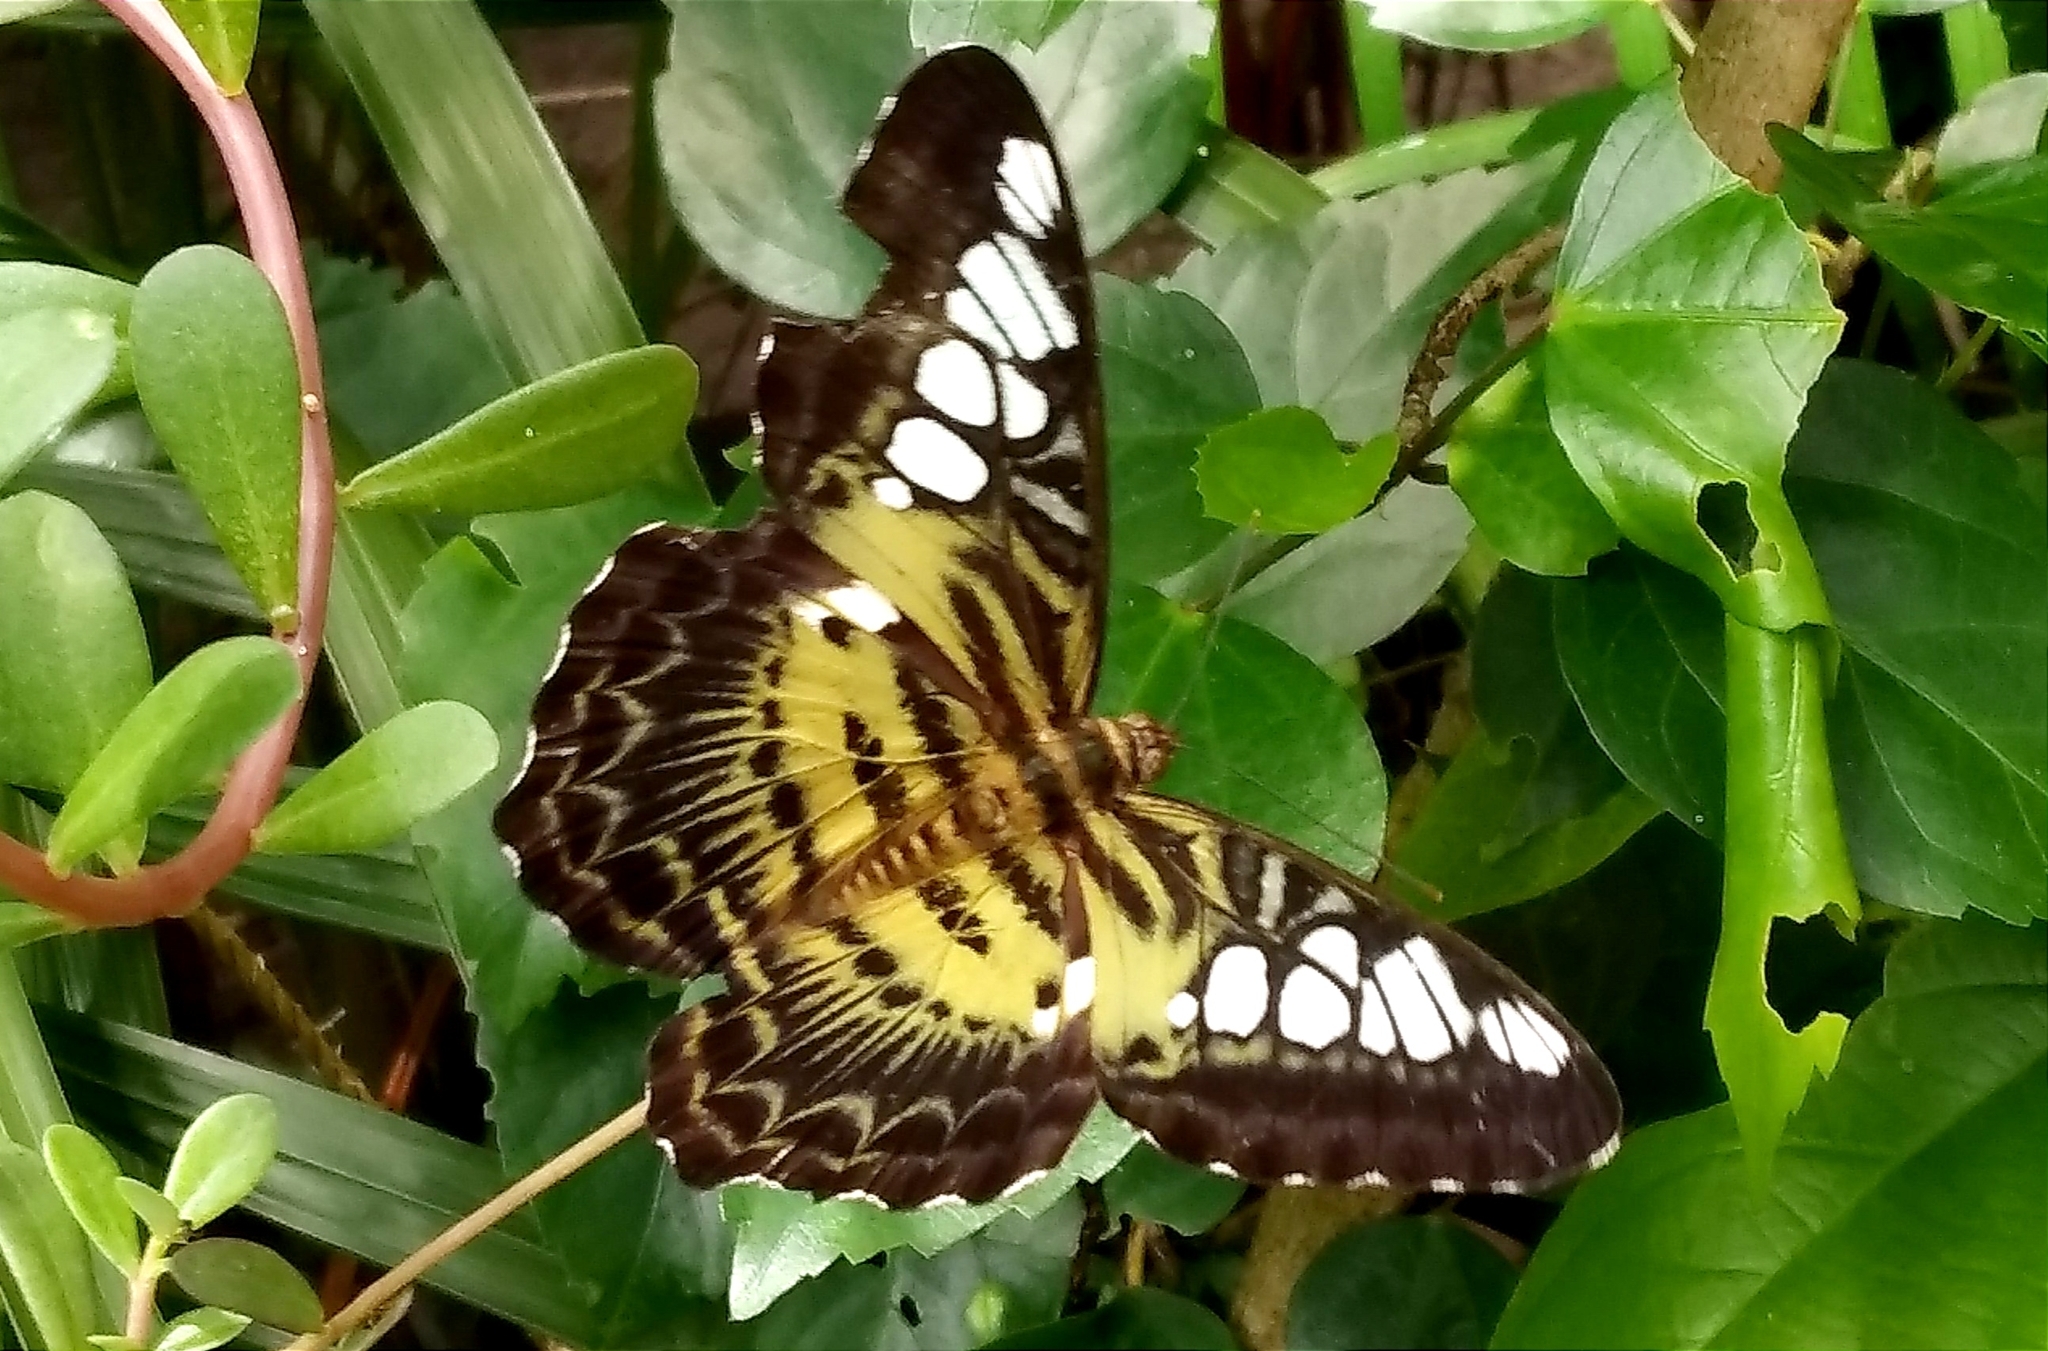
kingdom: Animalia
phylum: Arthropoda
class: Insecta
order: Lepidoptera
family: Nymphalidae
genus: Kallima
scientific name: Kallima sylvia
